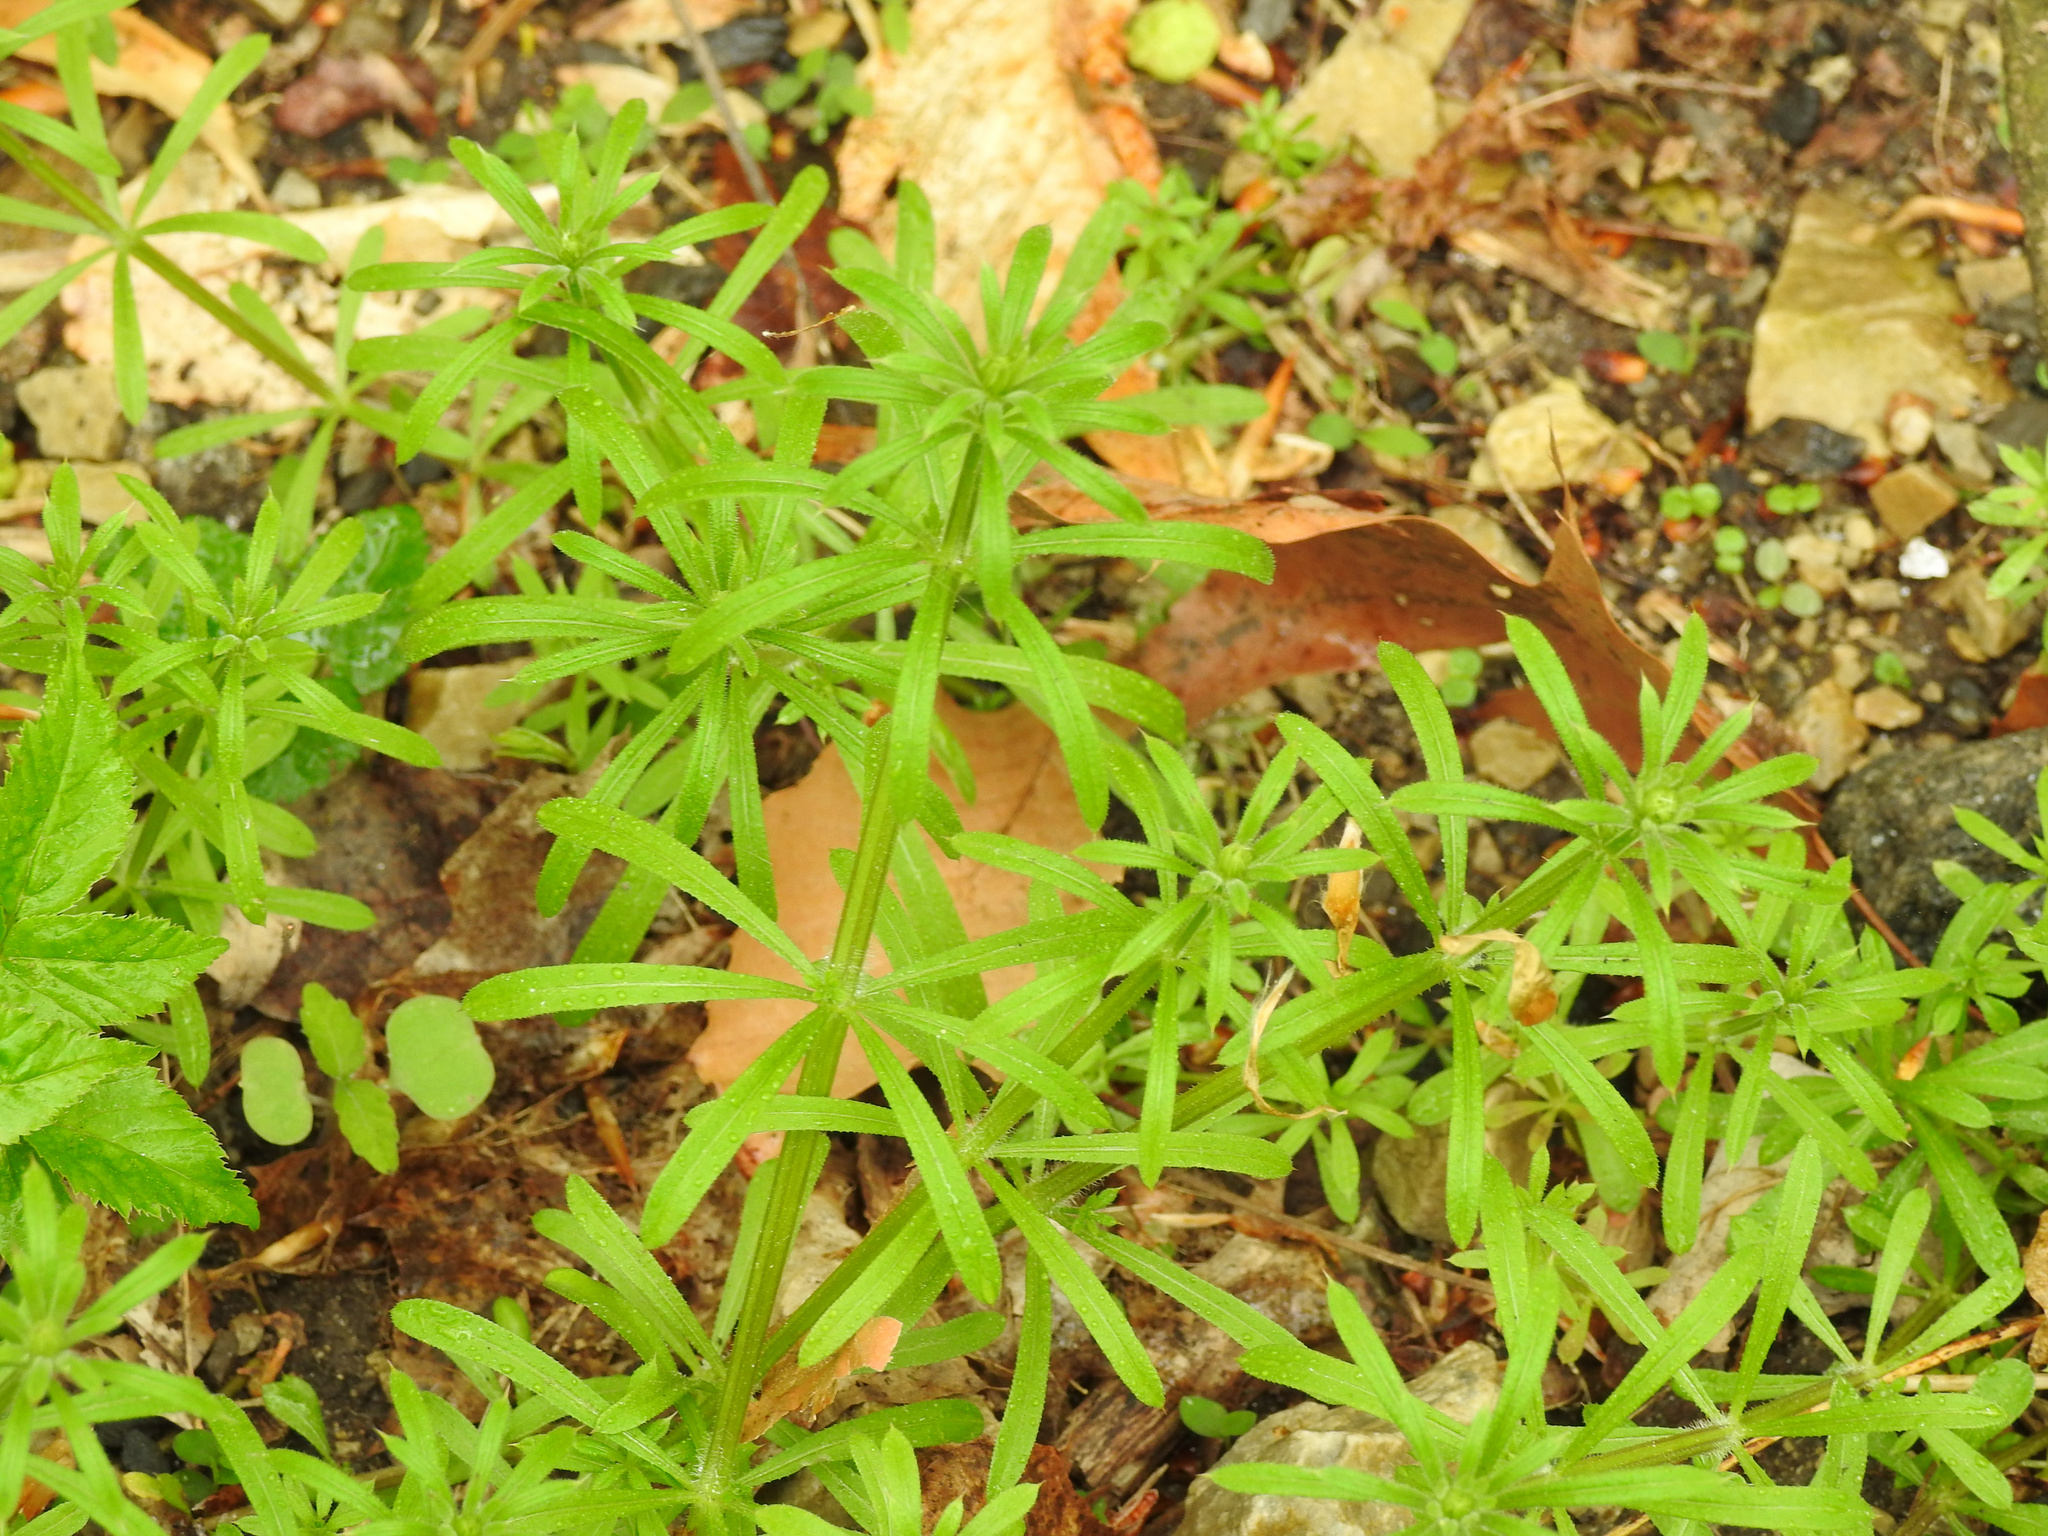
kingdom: Plantae
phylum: Tracheophyta
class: Magnoliopsida
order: Gentianales
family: Rubiaceae
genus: Galium
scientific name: Galium aparine
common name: Cleavers
